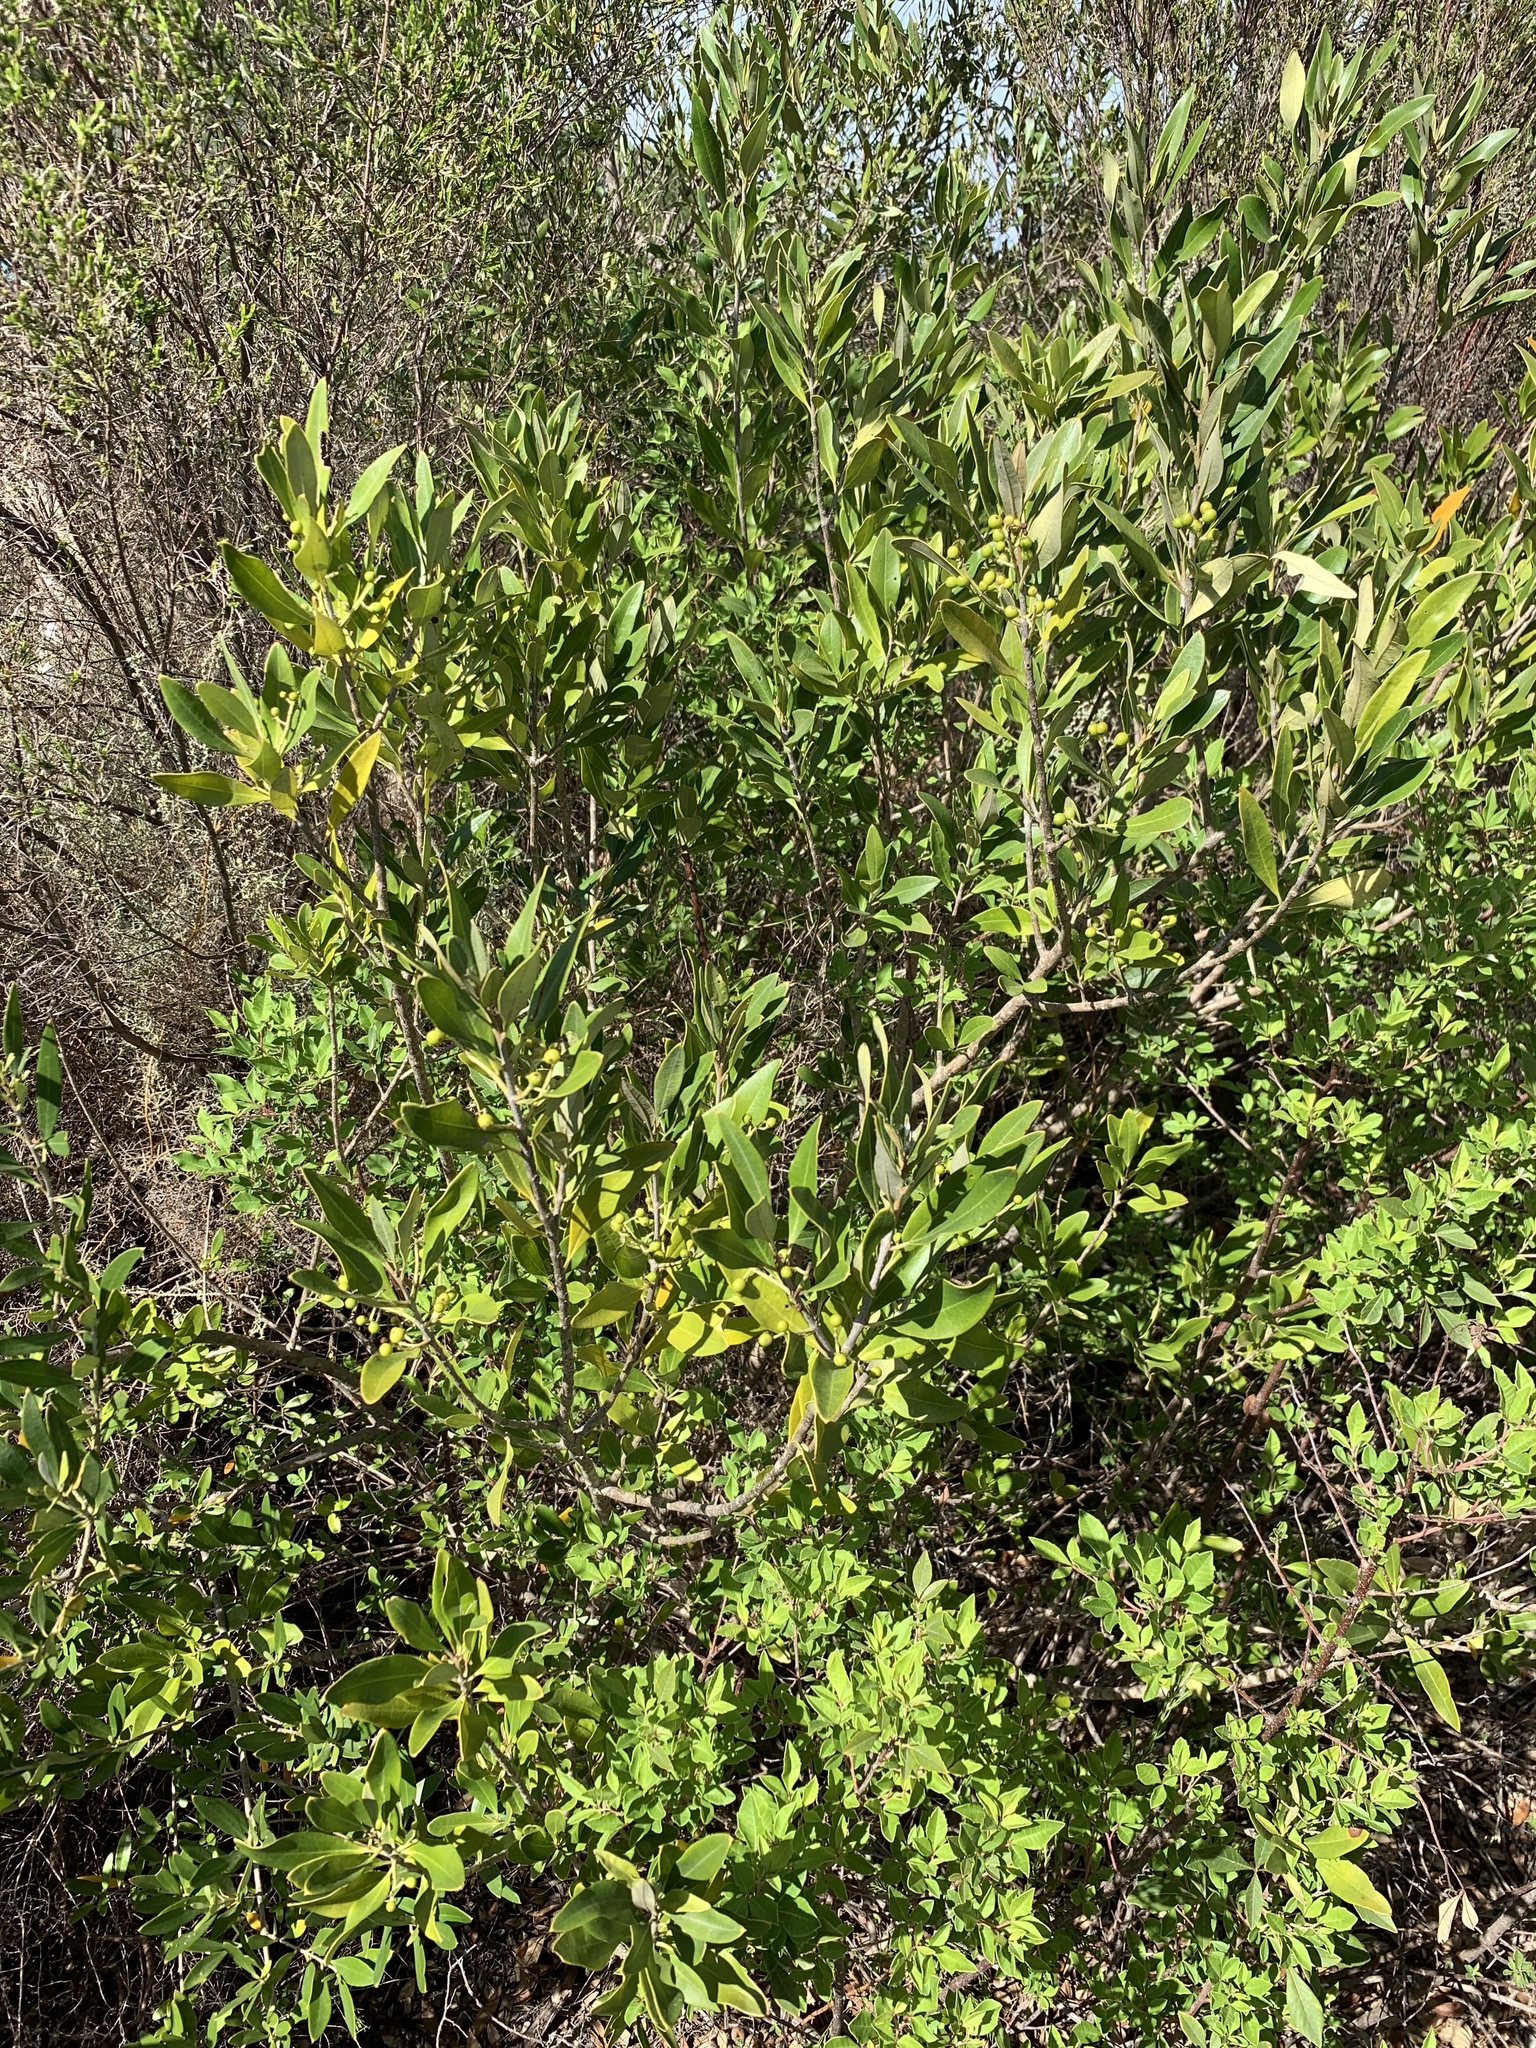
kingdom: Plantae
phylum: Tracheophyta
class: Magnoliopsida
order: Lamiales
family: Oleaceae
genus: Olea
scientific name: Olea europaea
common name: Olive
